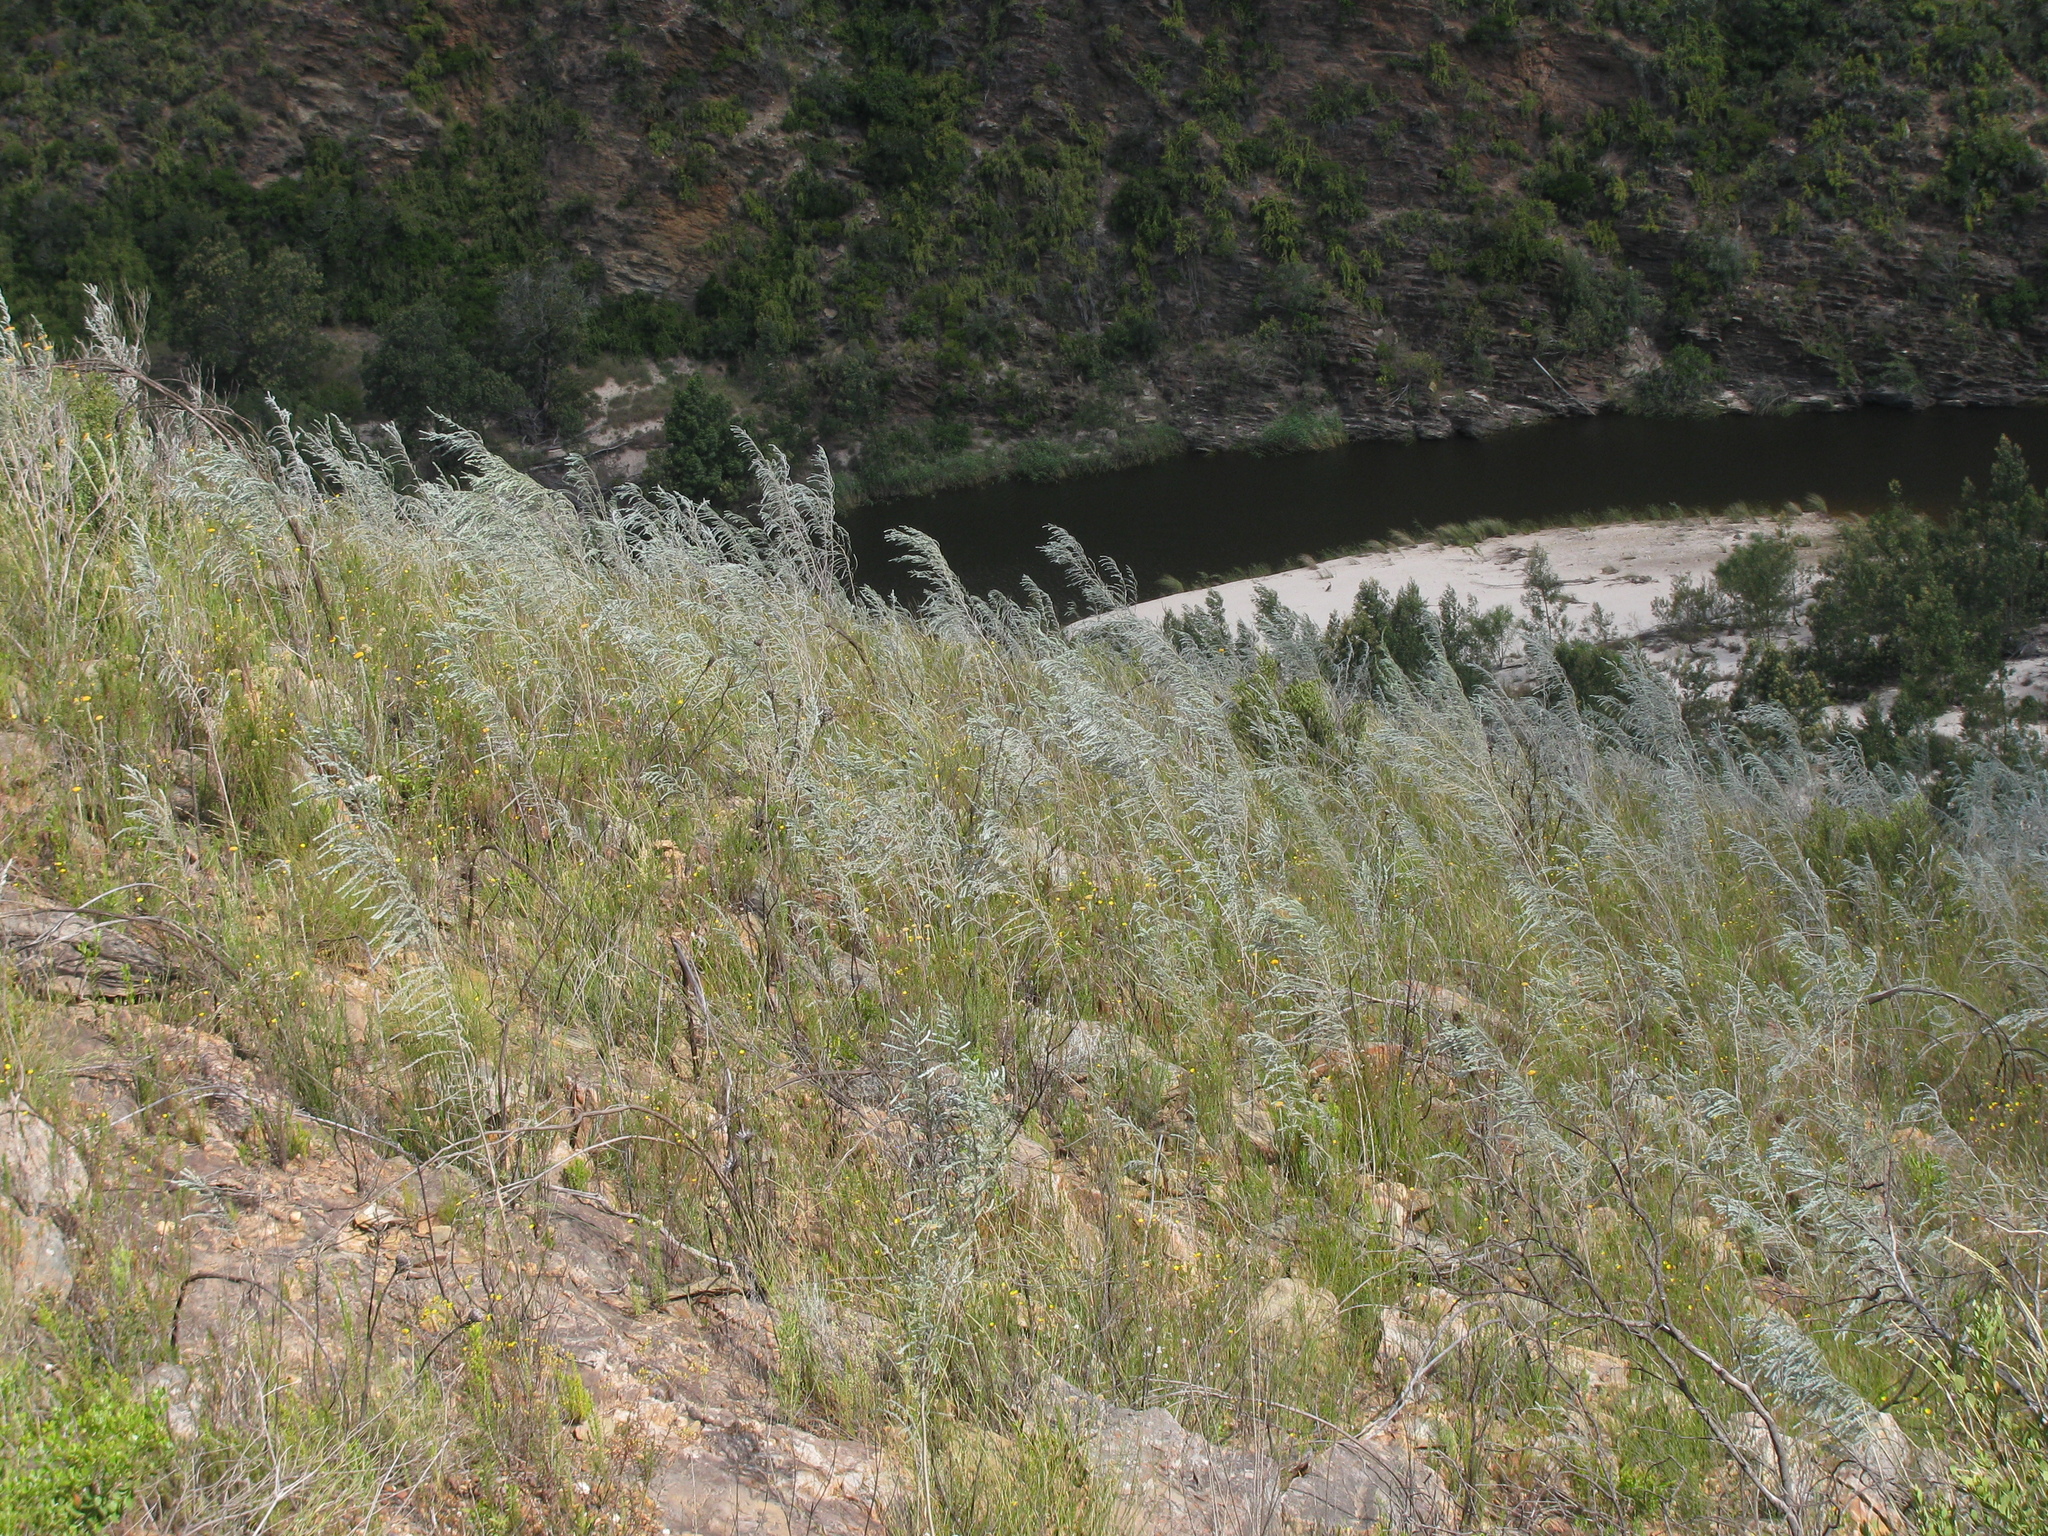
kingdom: Plantae
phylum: Tracheophyta
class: Magnoliopsida
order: Fabales
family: Fabaceae
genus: Aspalathus
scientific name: Aspalathus usnoides
